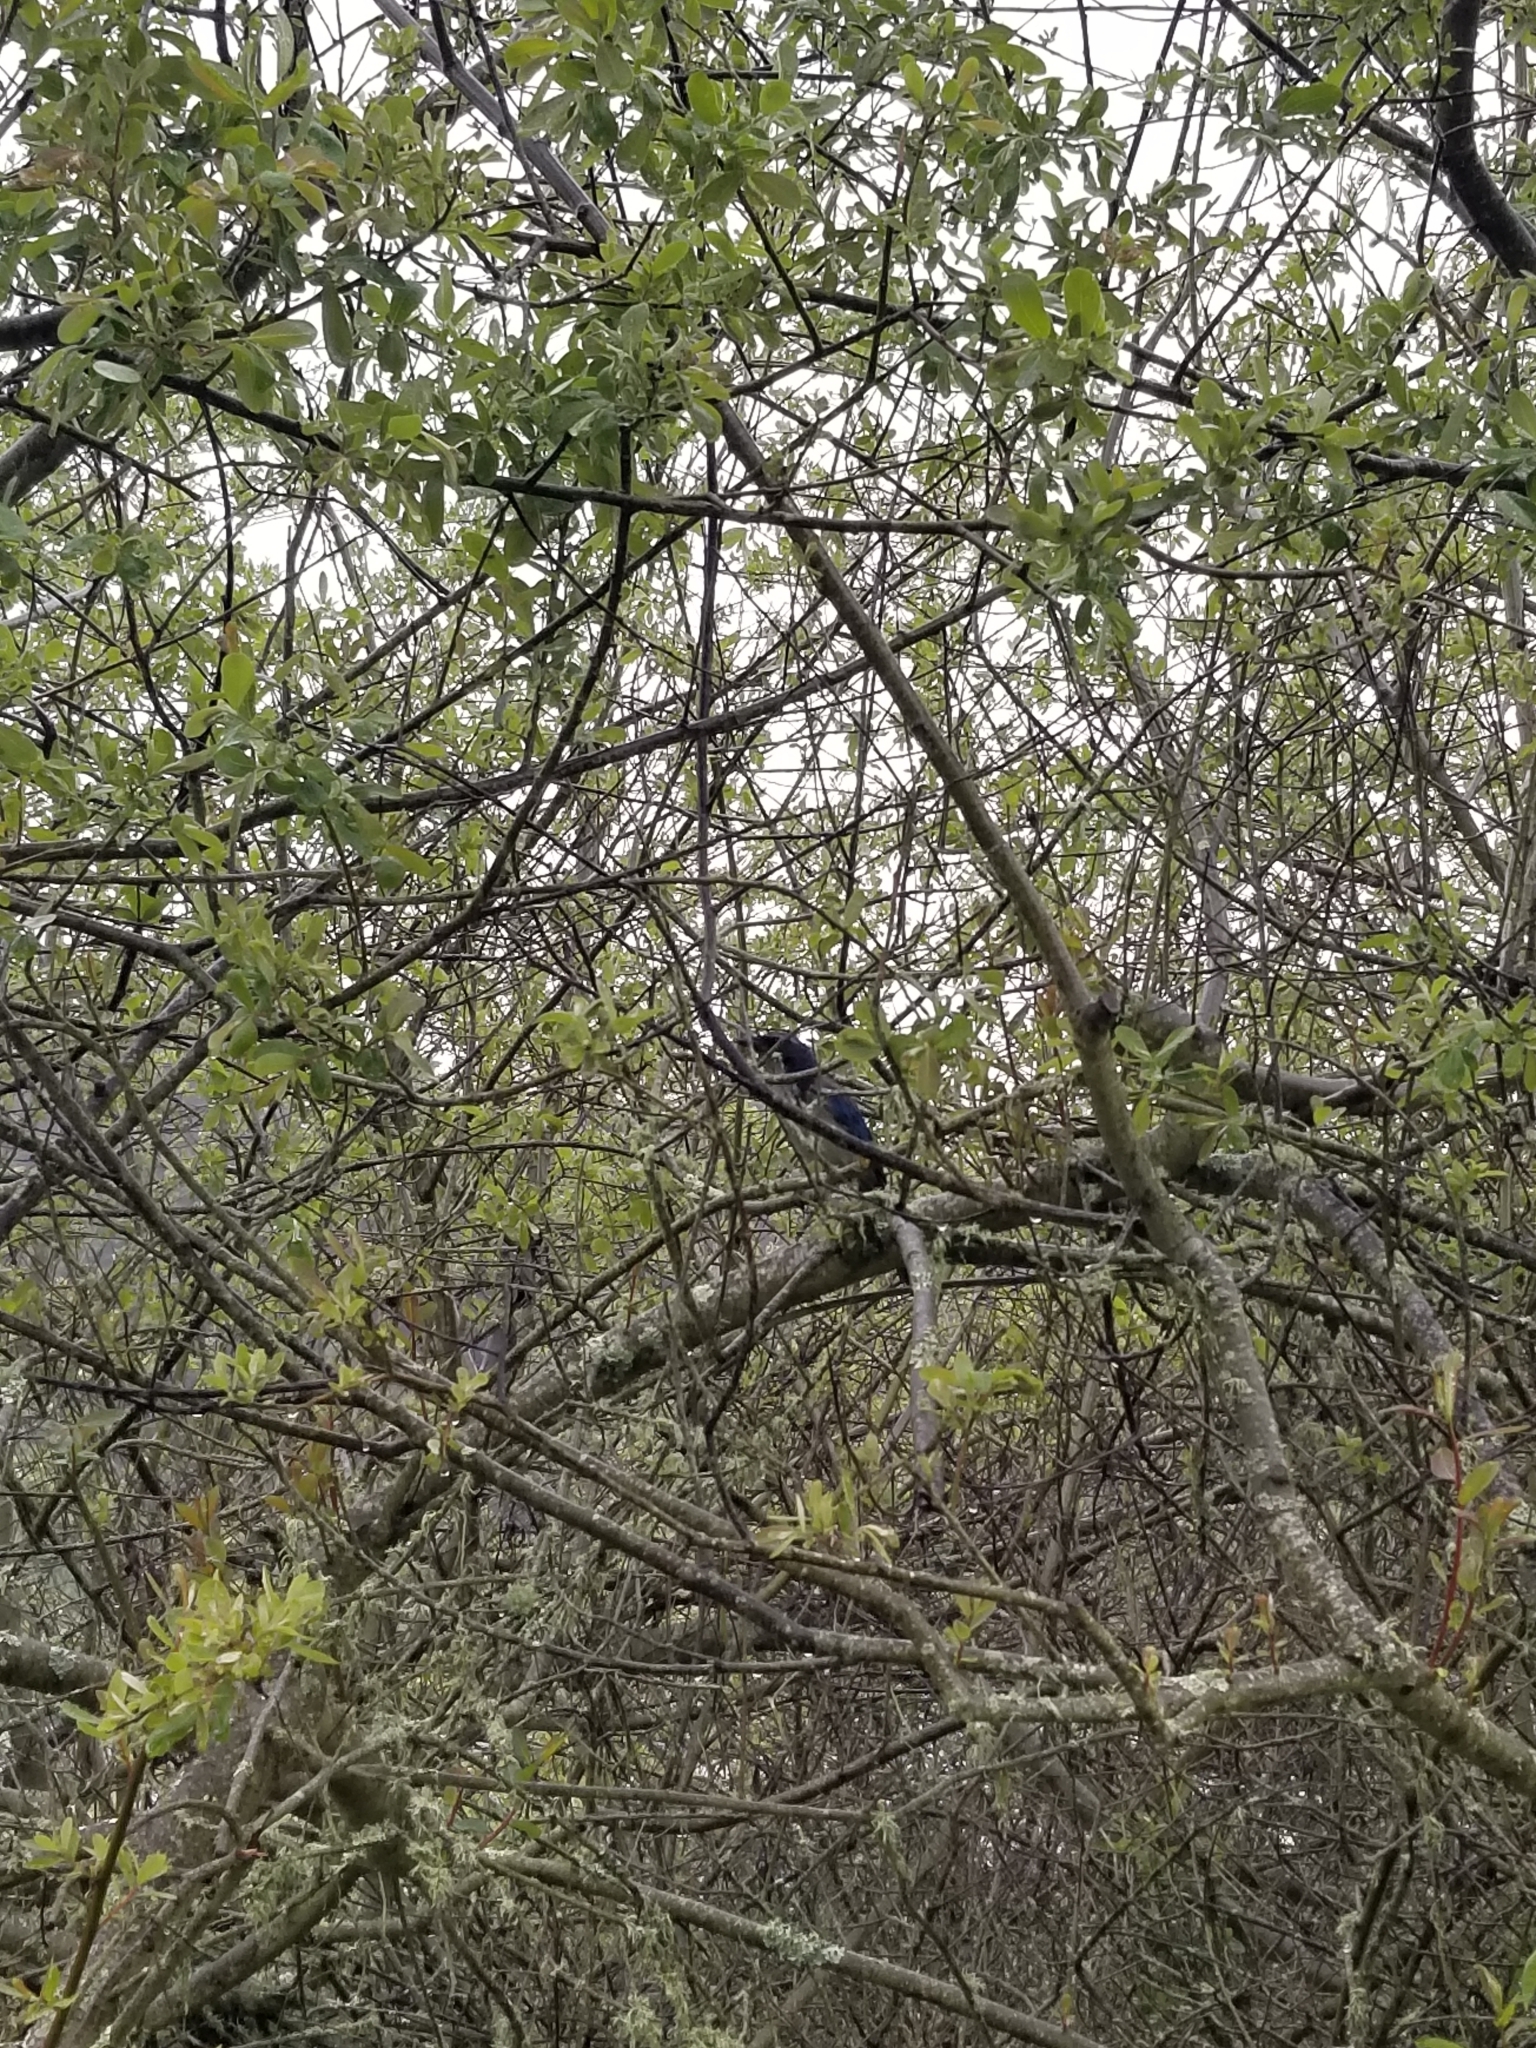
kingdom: Animalia
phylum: Chordata
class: Aves
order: Passeriformes
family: Corvidae
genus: Aphelocoma
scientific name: Aphelocoma californica
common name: California scrub-jay
